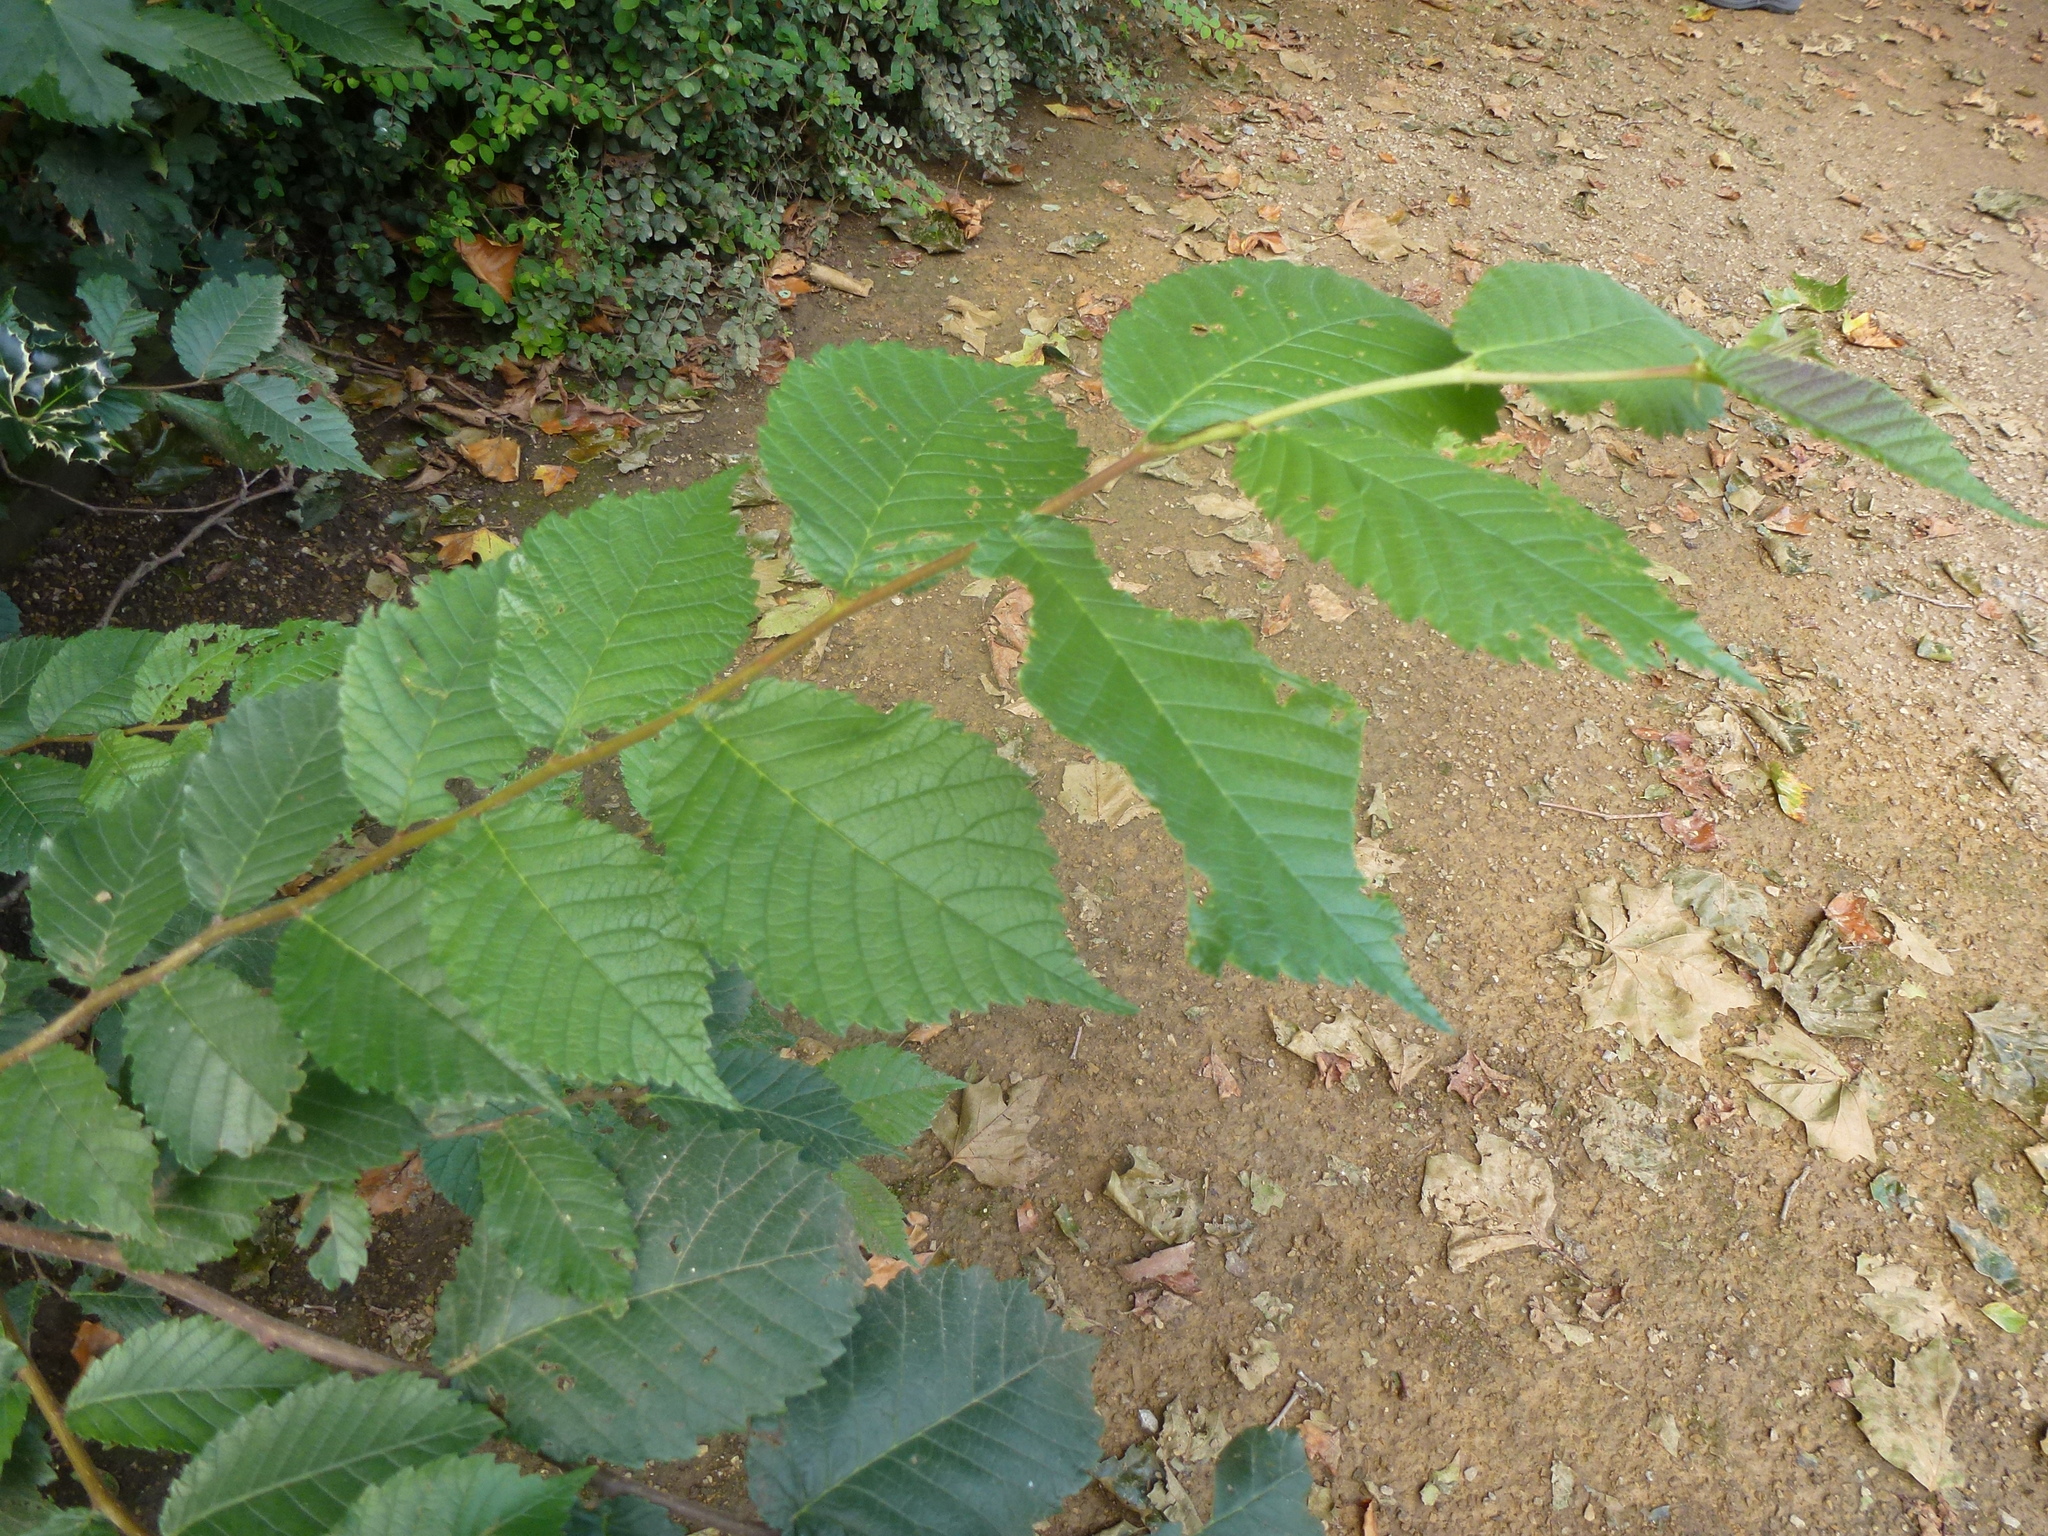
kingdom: Plantae
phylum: Tracheophyta
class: Magnoliopsida
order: Rosales
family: Ulmaceae
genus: Ulmus
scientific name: Ulmus glabra
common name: Wych elm
